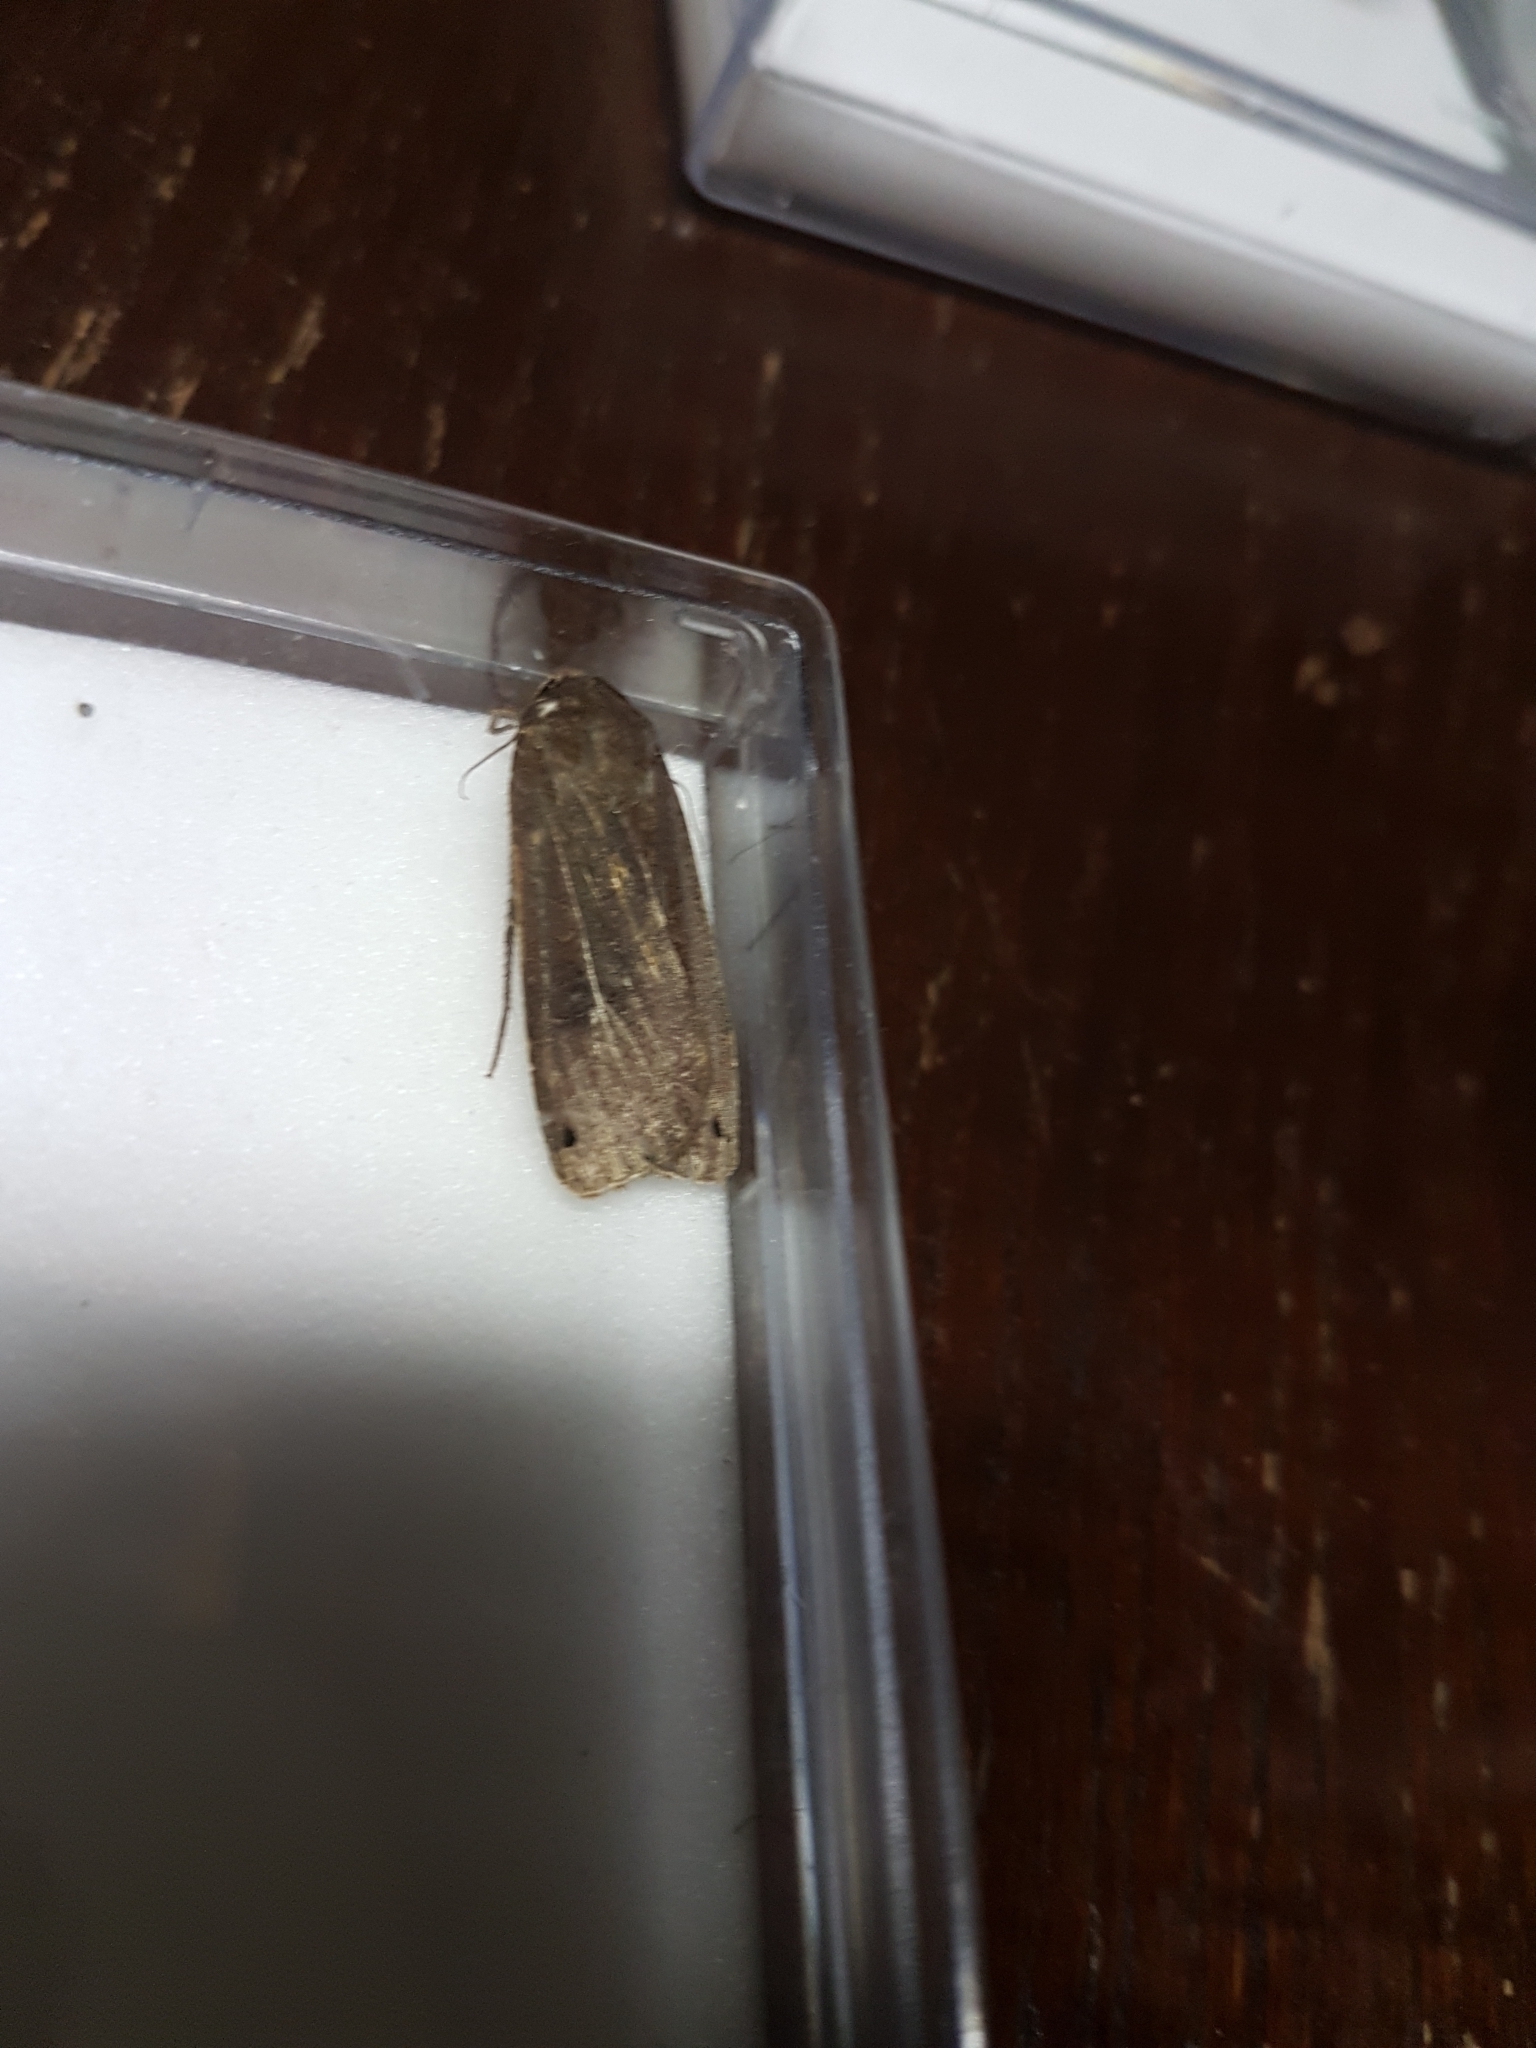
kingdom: Animalia
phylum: Arthropoda
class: Insecta
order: Lepidoptera
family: Noctuidae
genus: Noctua
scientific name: Noctua pronuba
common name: Large yellow underwing
